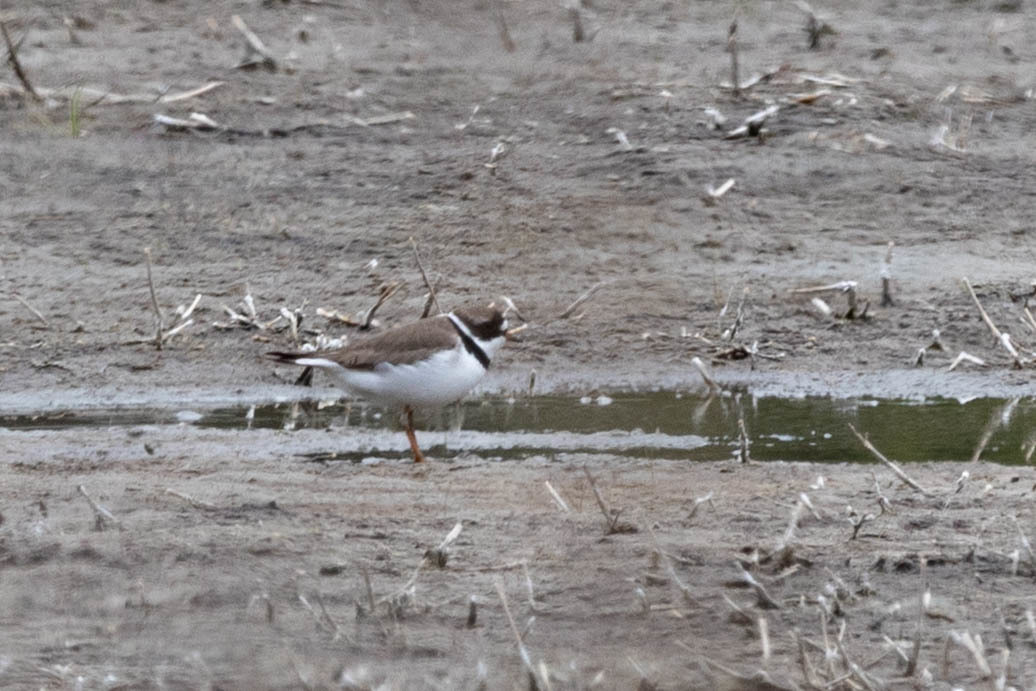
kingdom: Animalia
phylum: Chordata
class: Aves
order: Charadriiformes
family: Charadriidae
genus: Charadrius
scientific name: Charadrius semipalmatus
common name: Semipalmated plover
